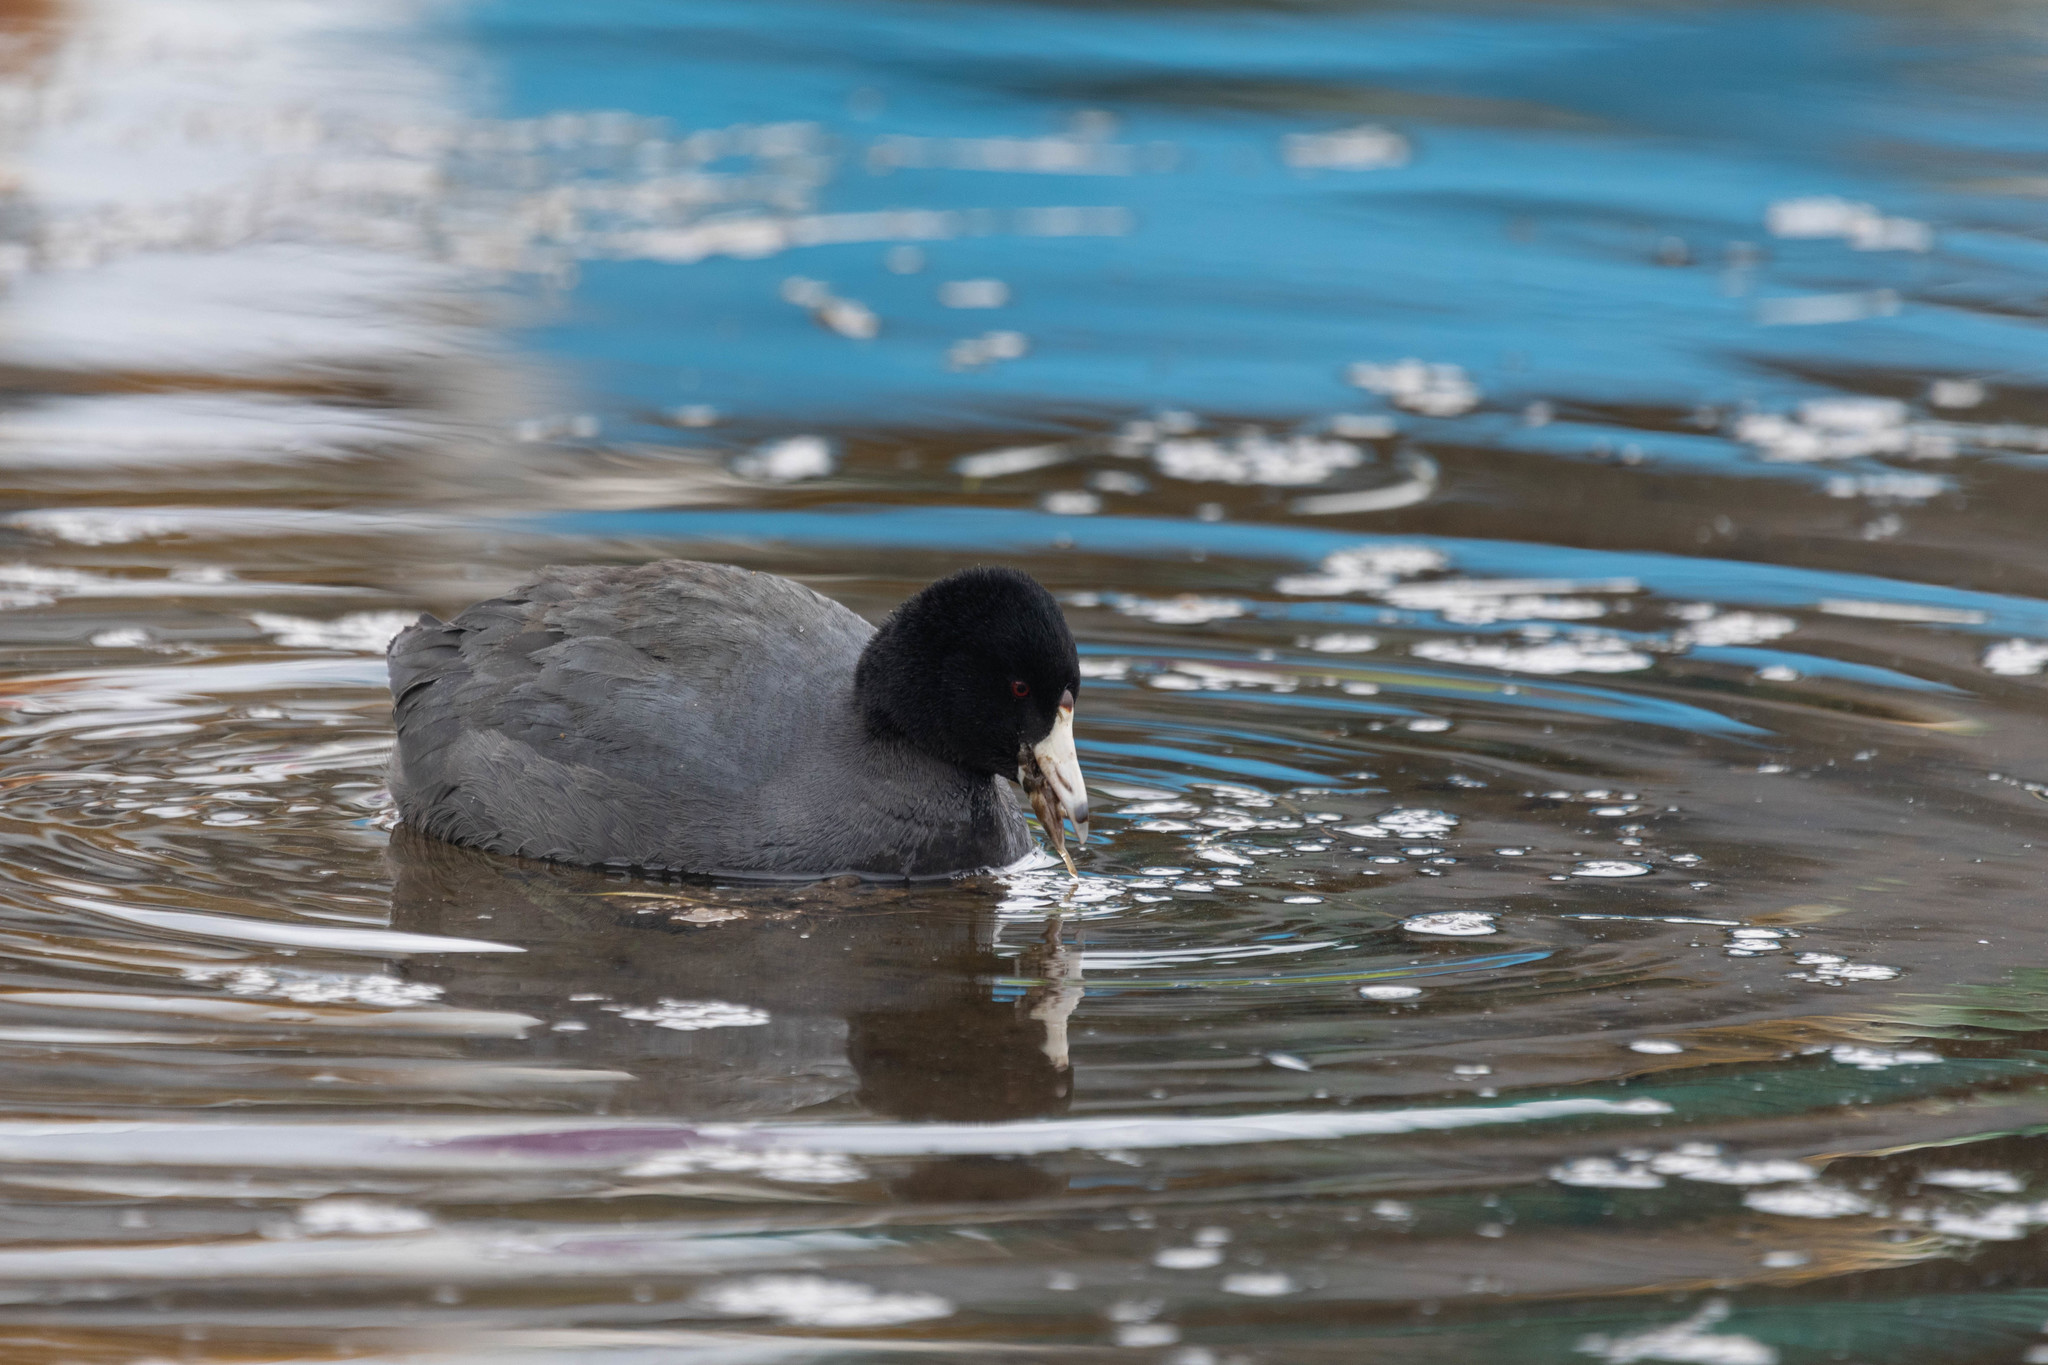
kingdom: Animalia
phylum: Chordata
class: Aves
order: Gruiformes
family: Rallidae
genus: Fulica
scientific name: Fulica americana
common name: American coot
